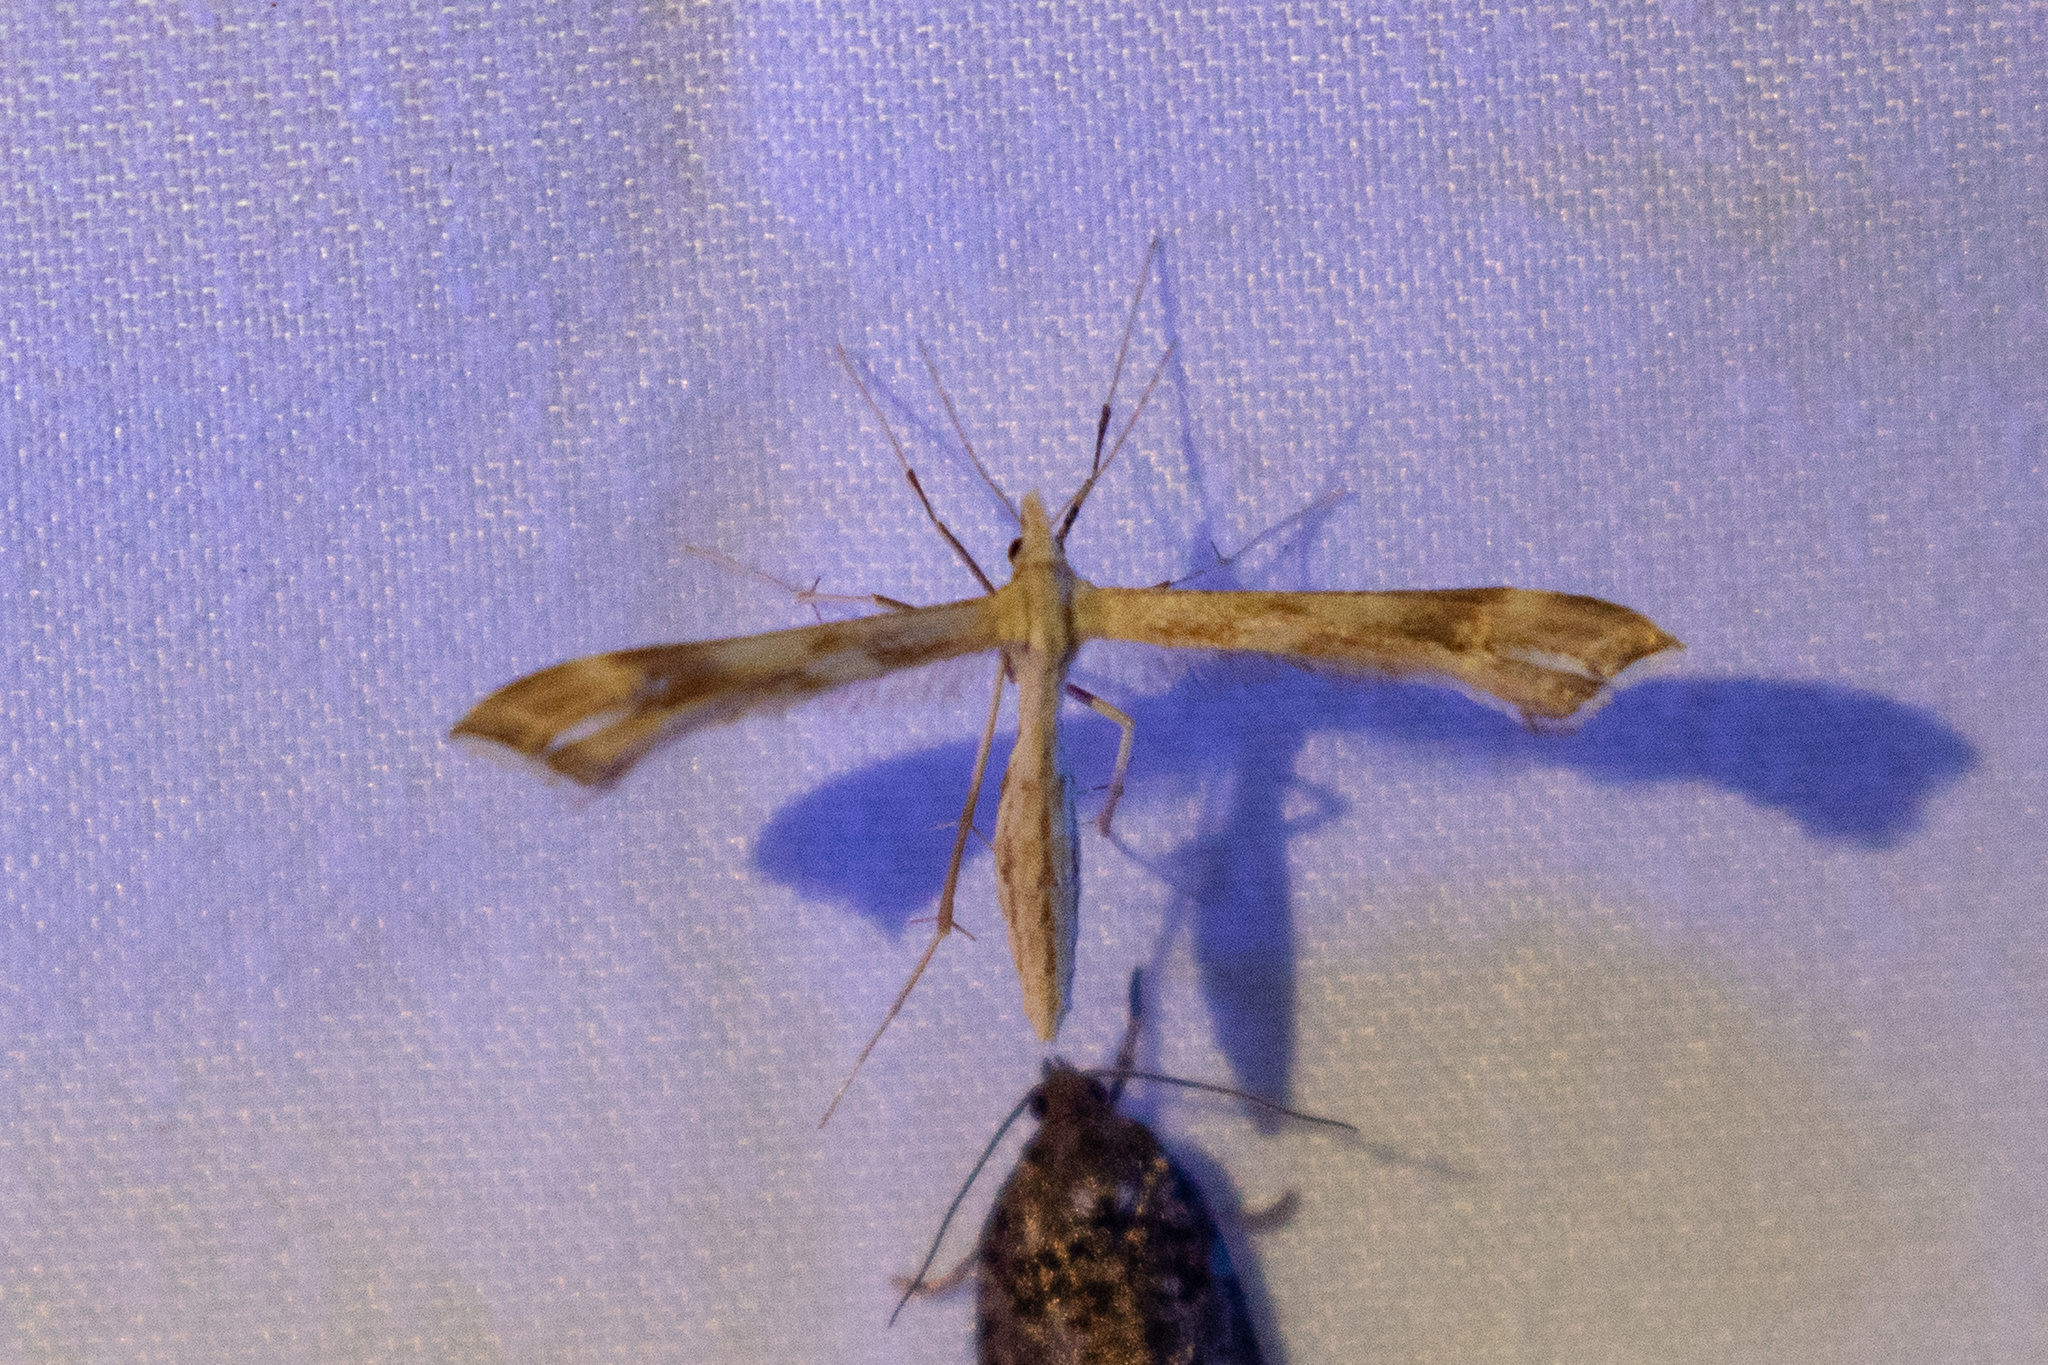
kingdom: Animalia
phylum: Arthropoda
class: Insecta
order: Lepidoptera
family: Pterophoridae
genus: Gillmeria
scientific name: Gillmeria pallidactyla
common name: Yarrow plume
